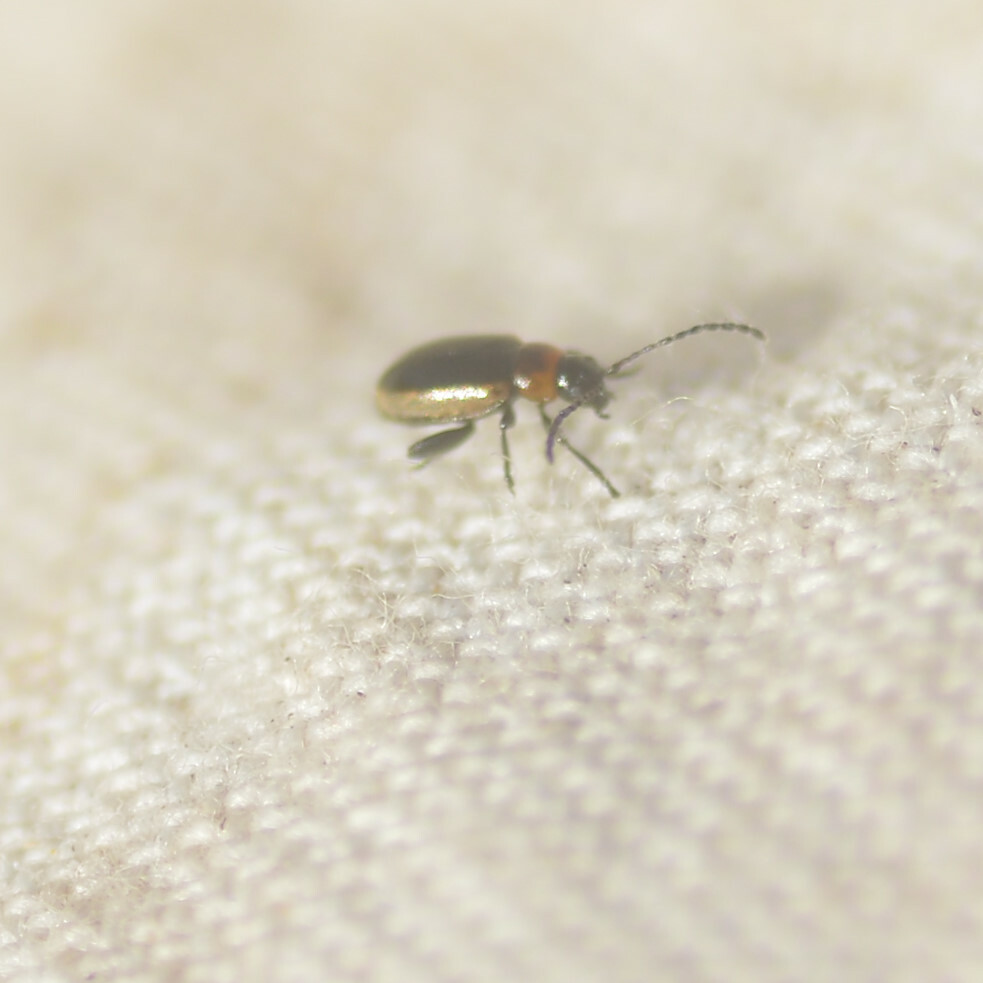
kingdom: Animalia
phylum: Arthropoda
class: Insecta
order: Coleoptera
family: Chrysomelidae
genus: Longitarsus
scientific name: Longitarsus dorsalis
